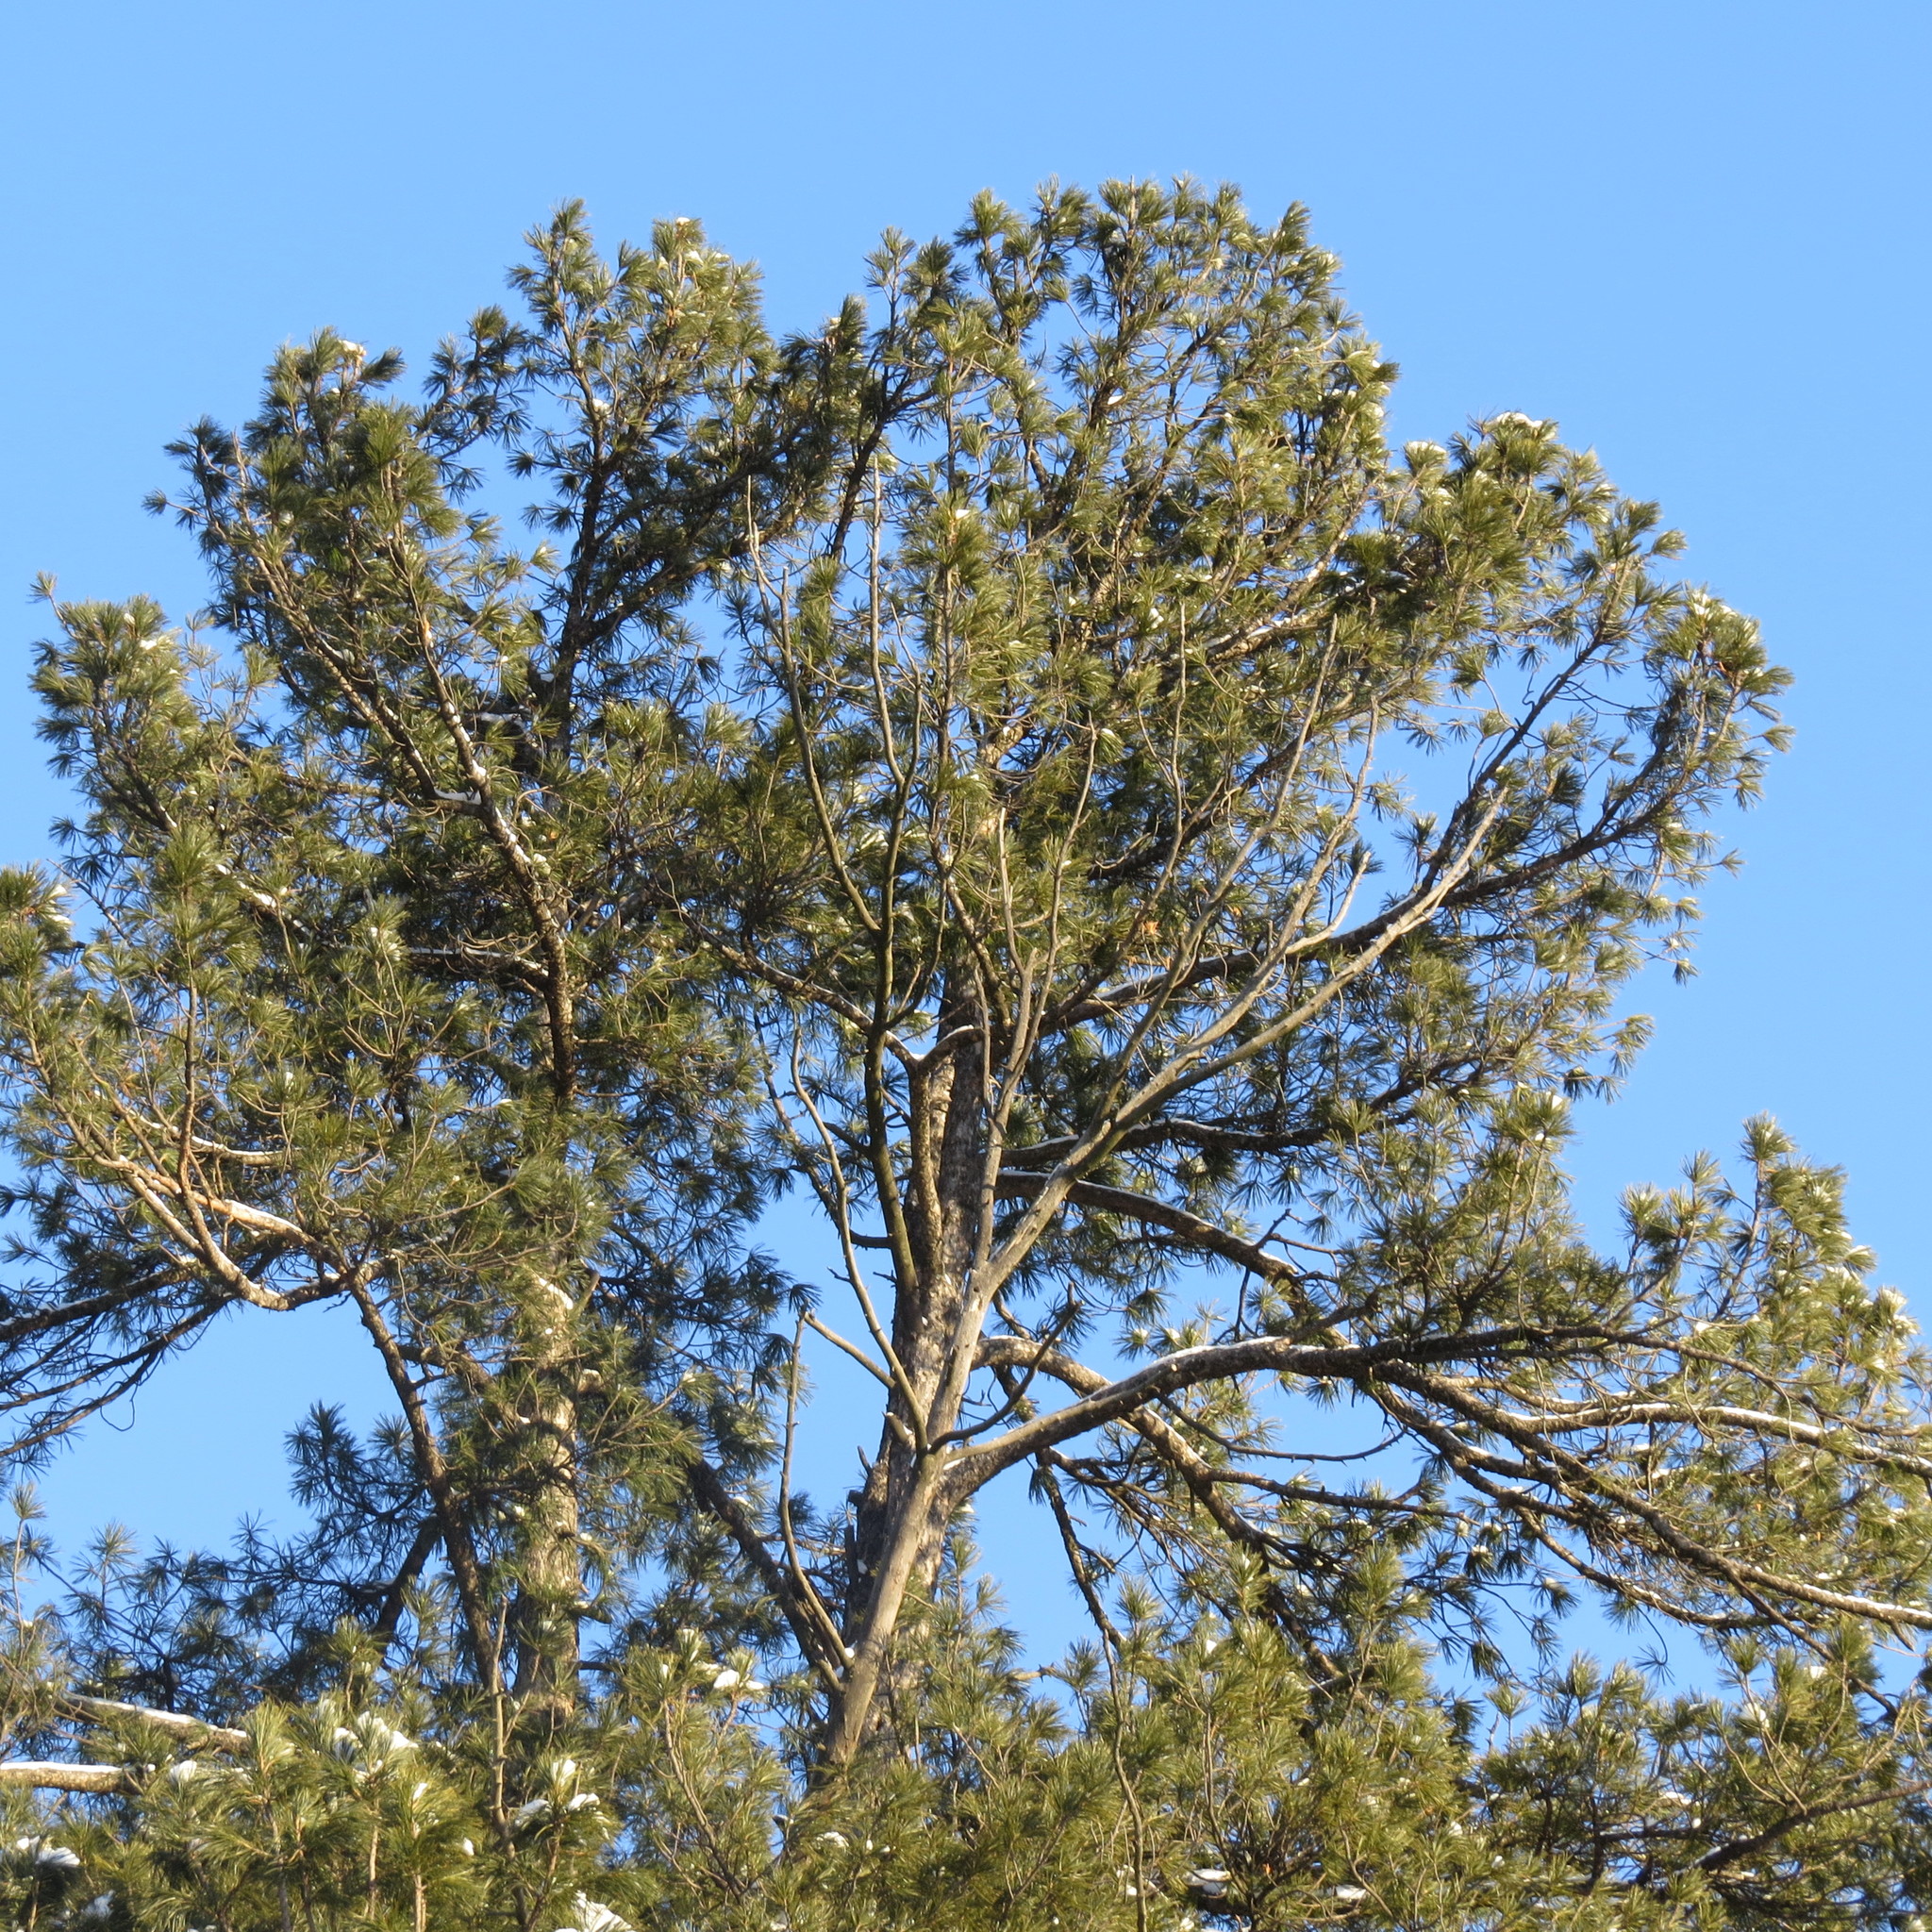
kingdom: Plantae
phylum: Tracheophyta
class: Pinopsida
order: Pinales
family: Pinaceae
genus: Pinus
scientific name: Pinus sibirica
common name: Siberian pine
